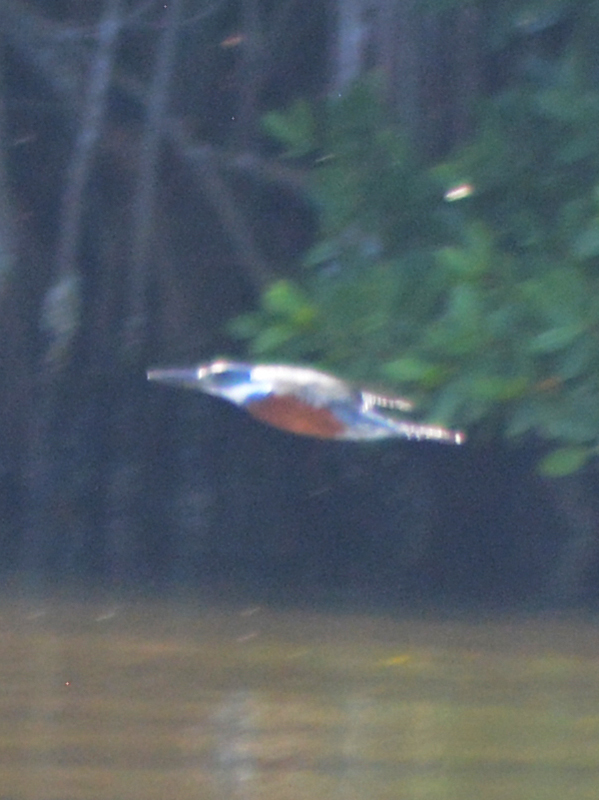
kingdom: Animalia
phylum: Chordata
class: Aves
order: Coraciiformes
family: Alcedinidae
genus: Megaceryle
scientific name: Megaceryle torquata
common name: Ringed kingfisher
